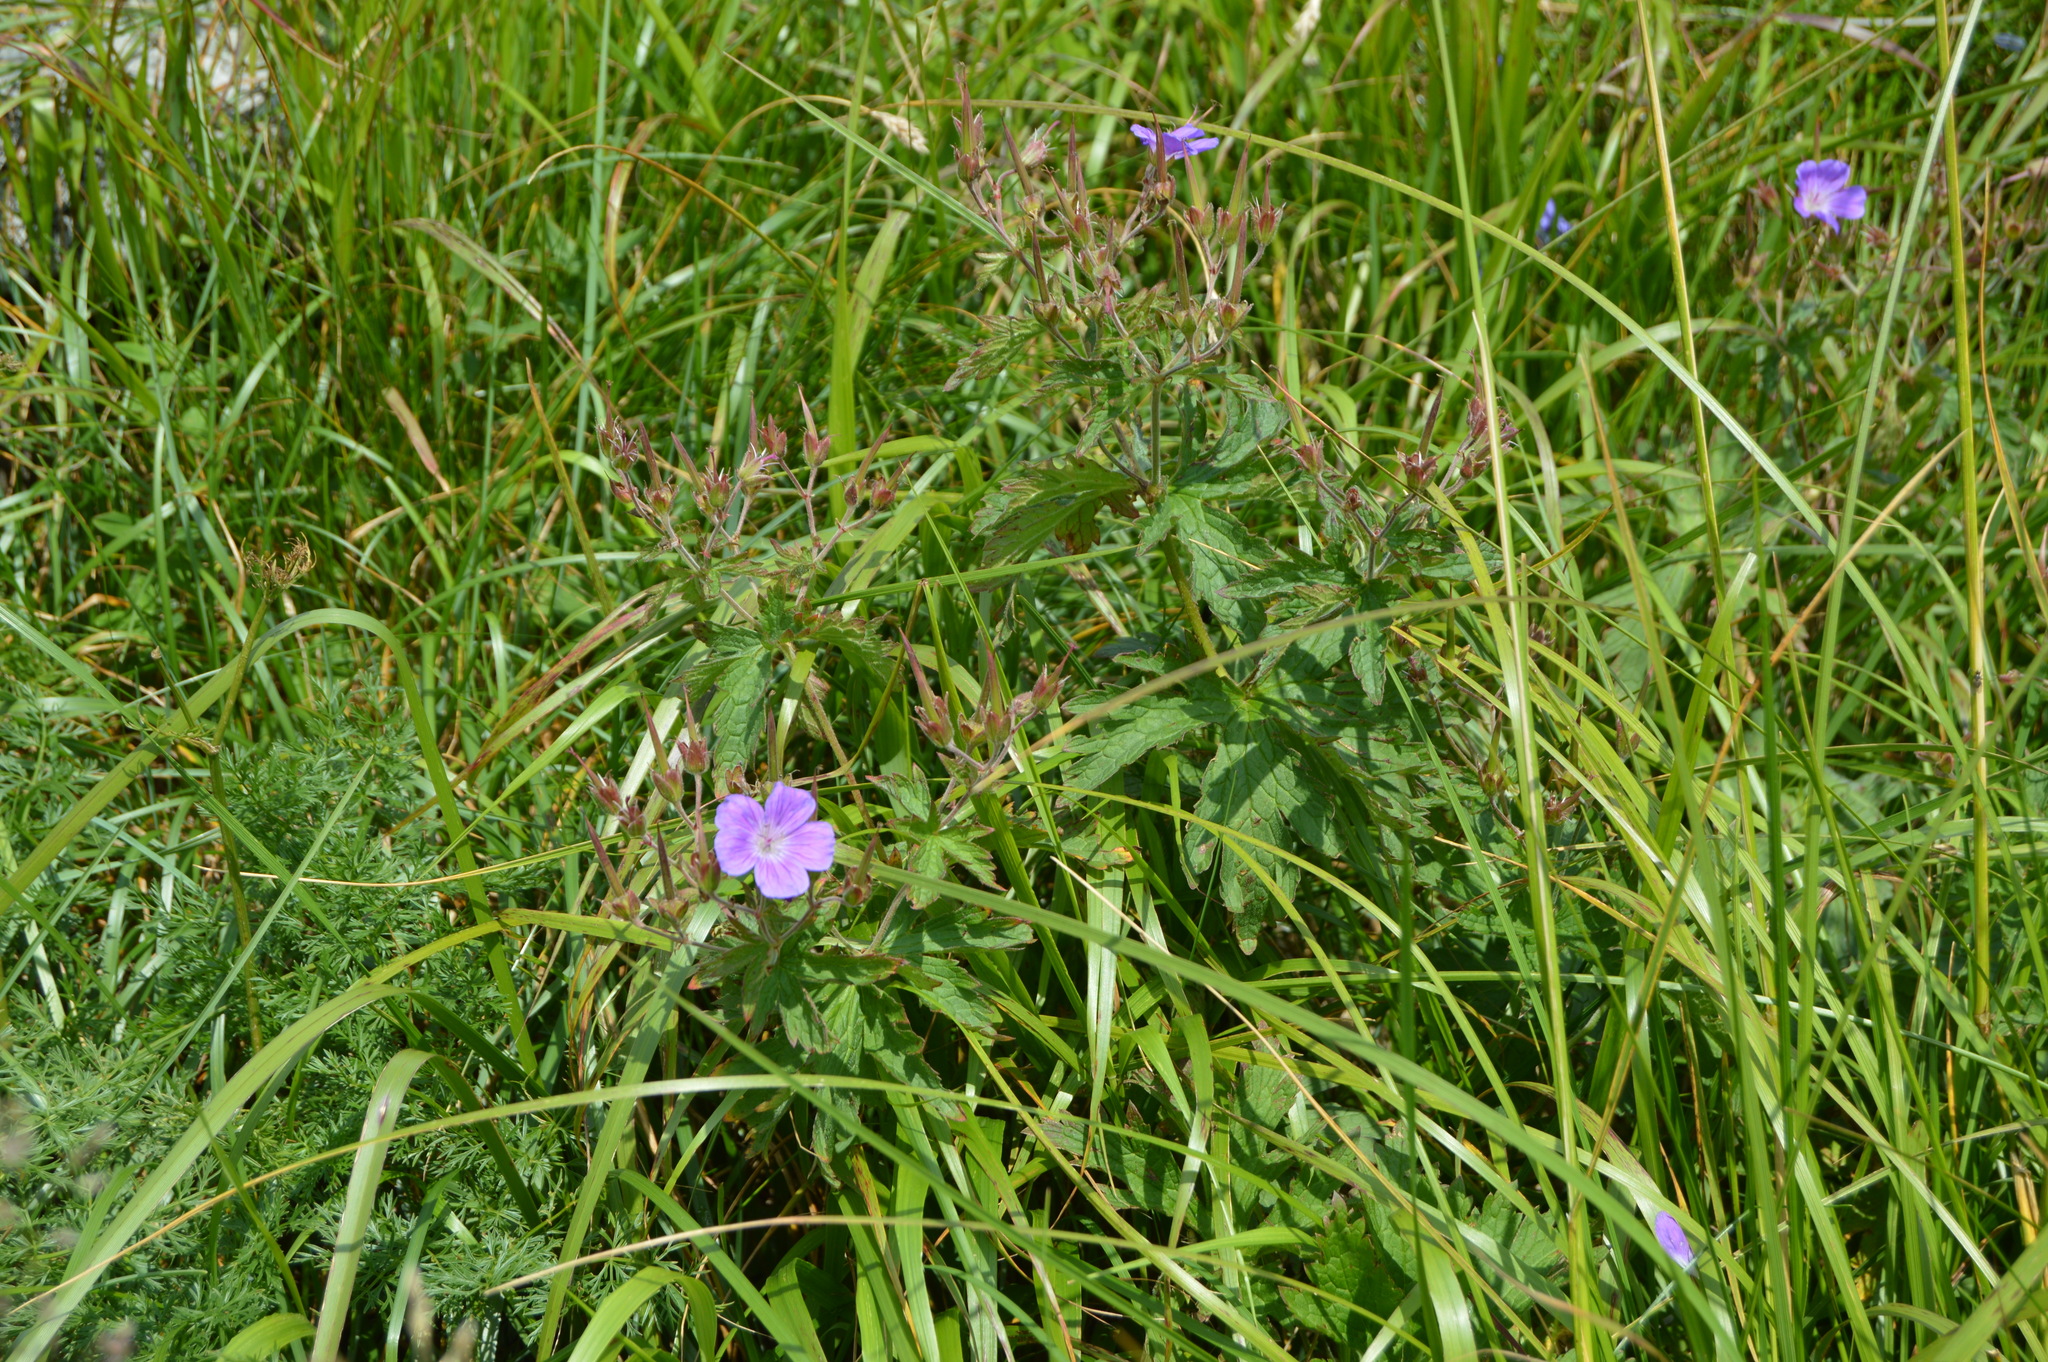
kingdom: Plantae
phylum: Tracheophyta
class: Magnoliopsida
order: Geraniales
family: Geraniaceae
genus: Geranium
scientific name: Geranium sylvaticum
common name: Wood crane's-bill
